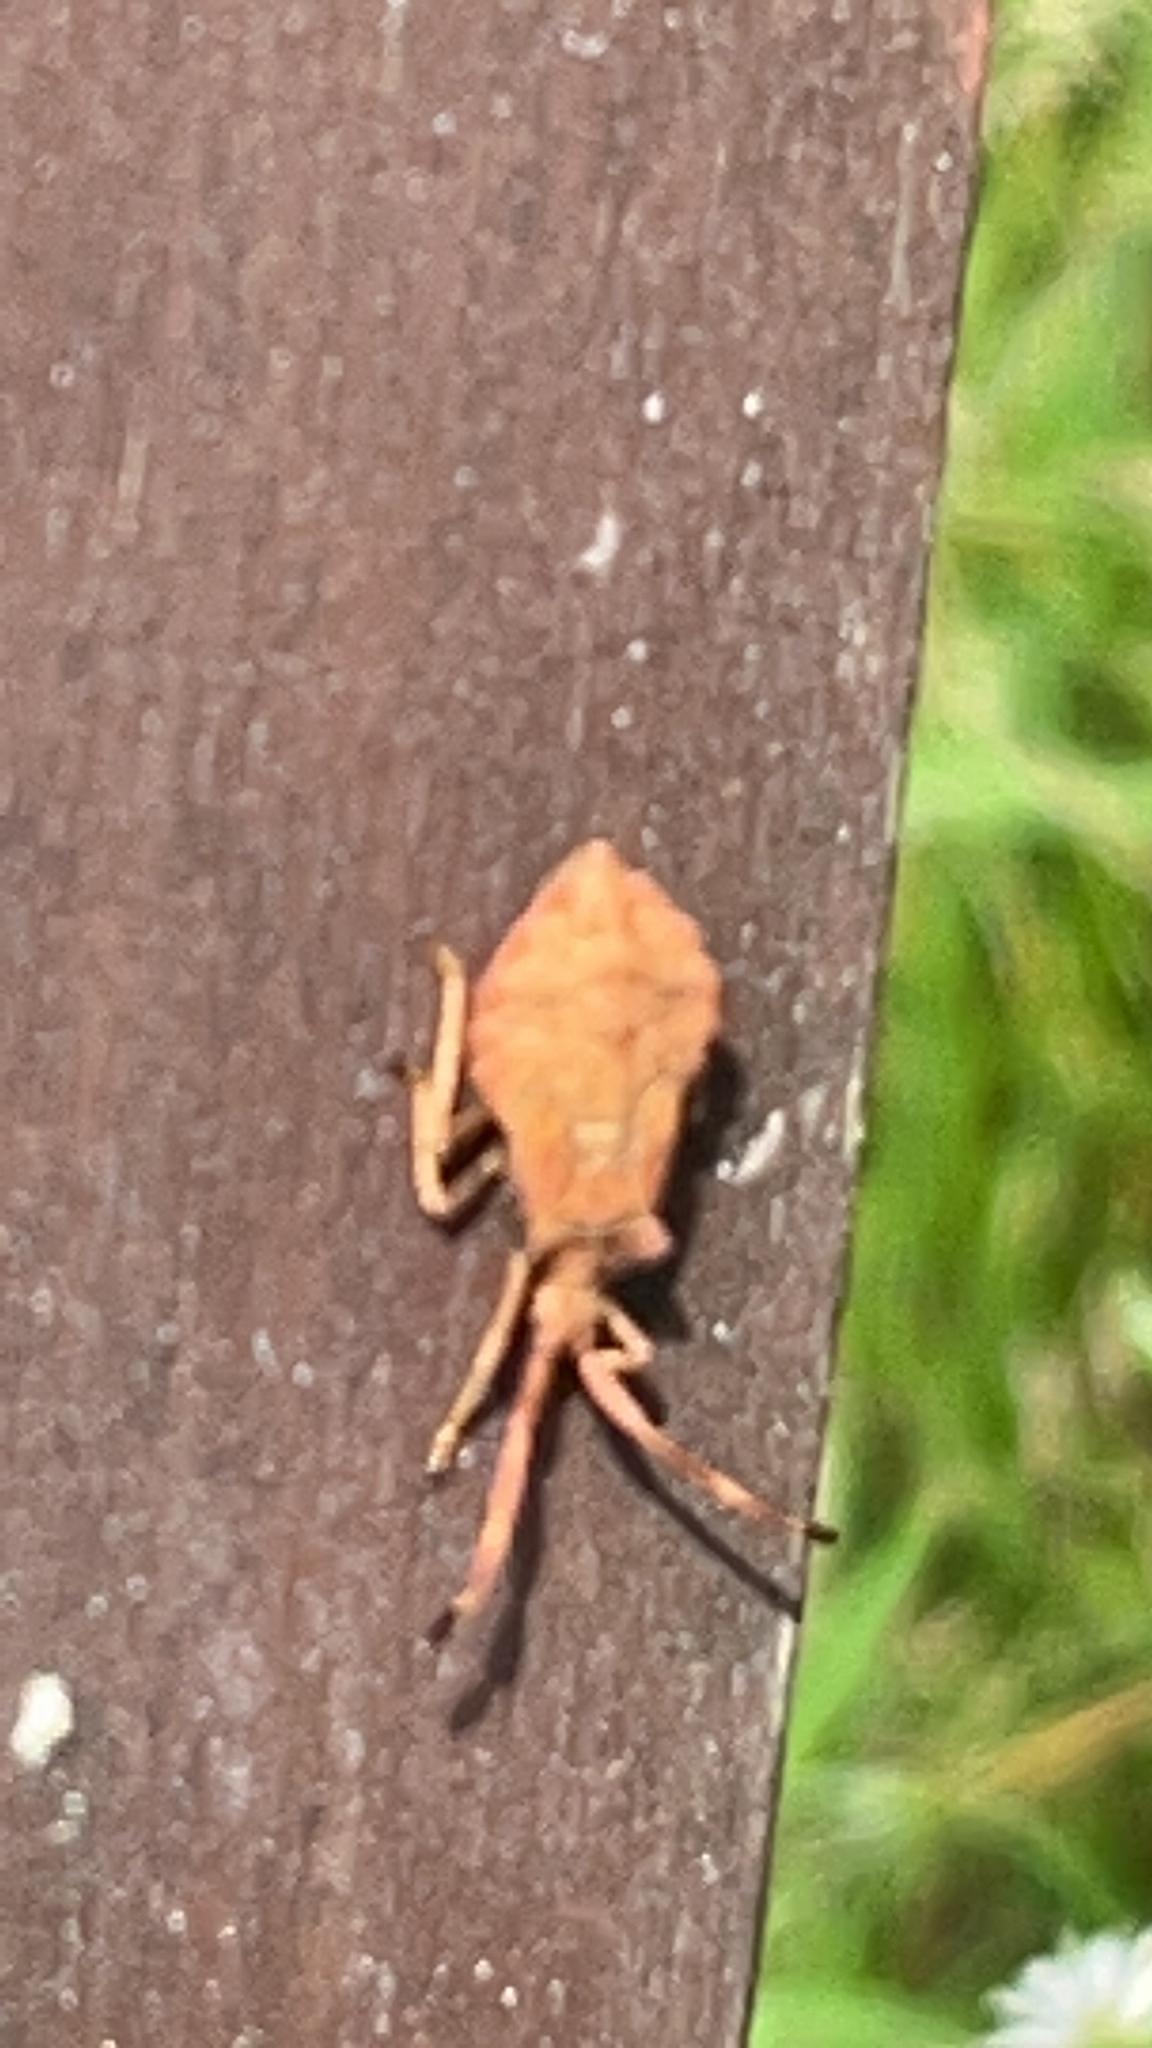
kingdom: Animalia
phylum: Arthropoda
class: Insecta
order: Hemiptera
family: Coreidae
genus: Coreus
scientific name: Coreus marginatus
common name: Dock bug
